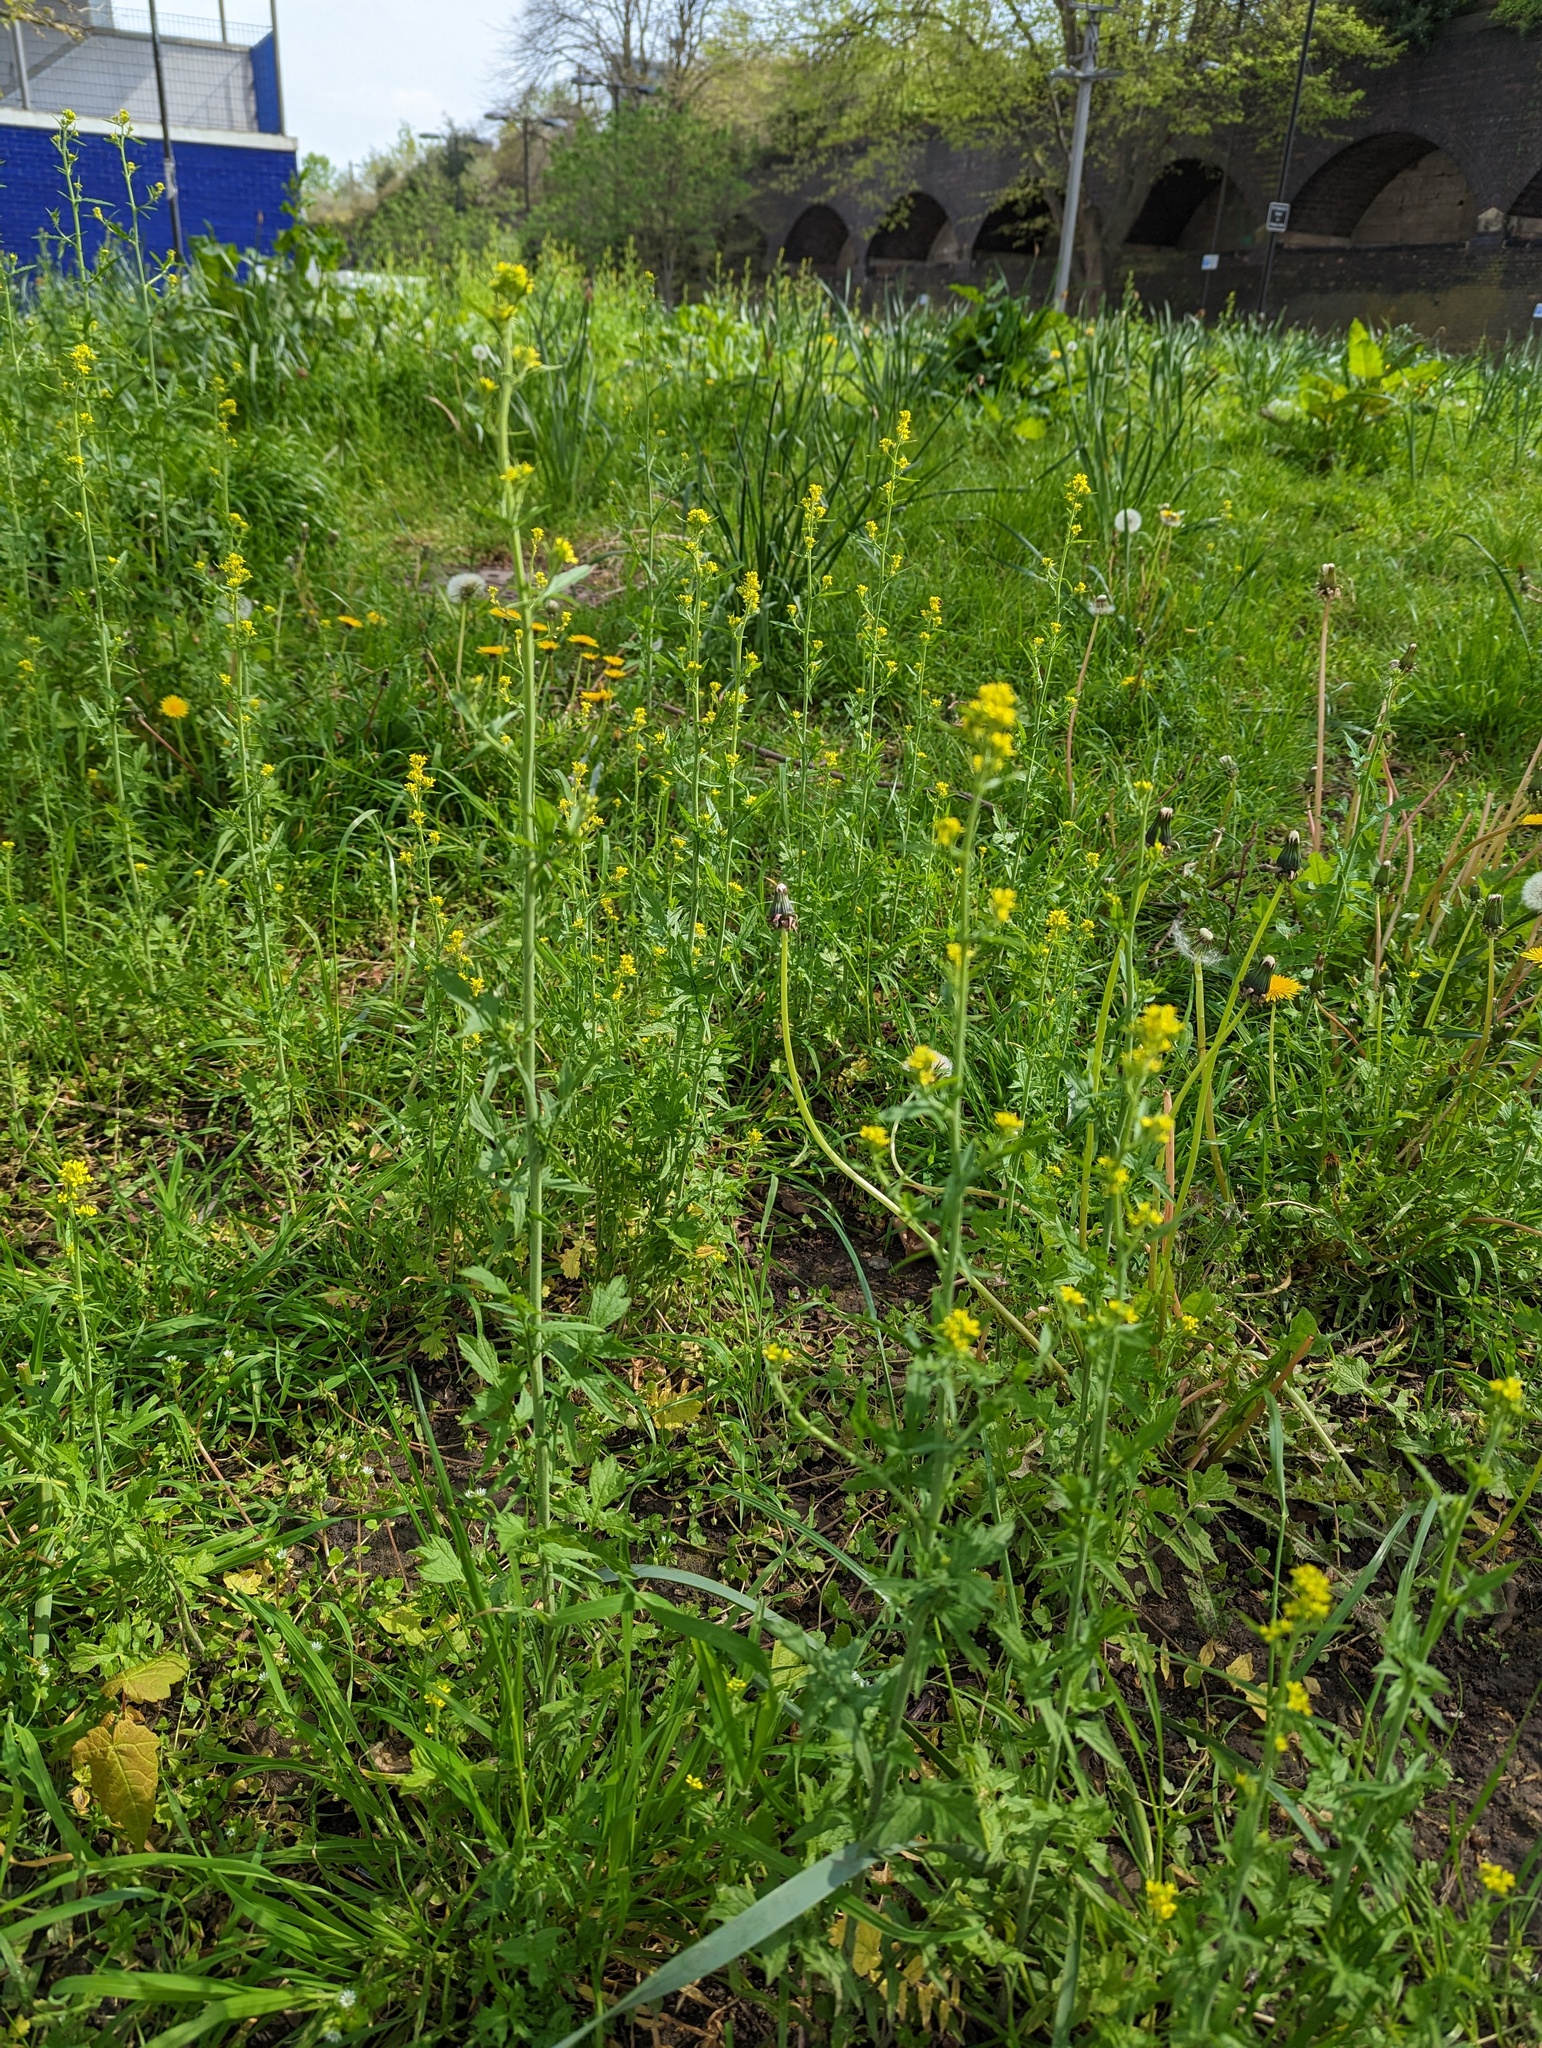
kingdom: Plantae
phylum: Tracheophyta
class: Magnoliopsida
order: Brassicales
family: Brassicaceae
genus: Sisymbrium
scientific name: Sisymbrium officinale
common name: Hedge mustard
